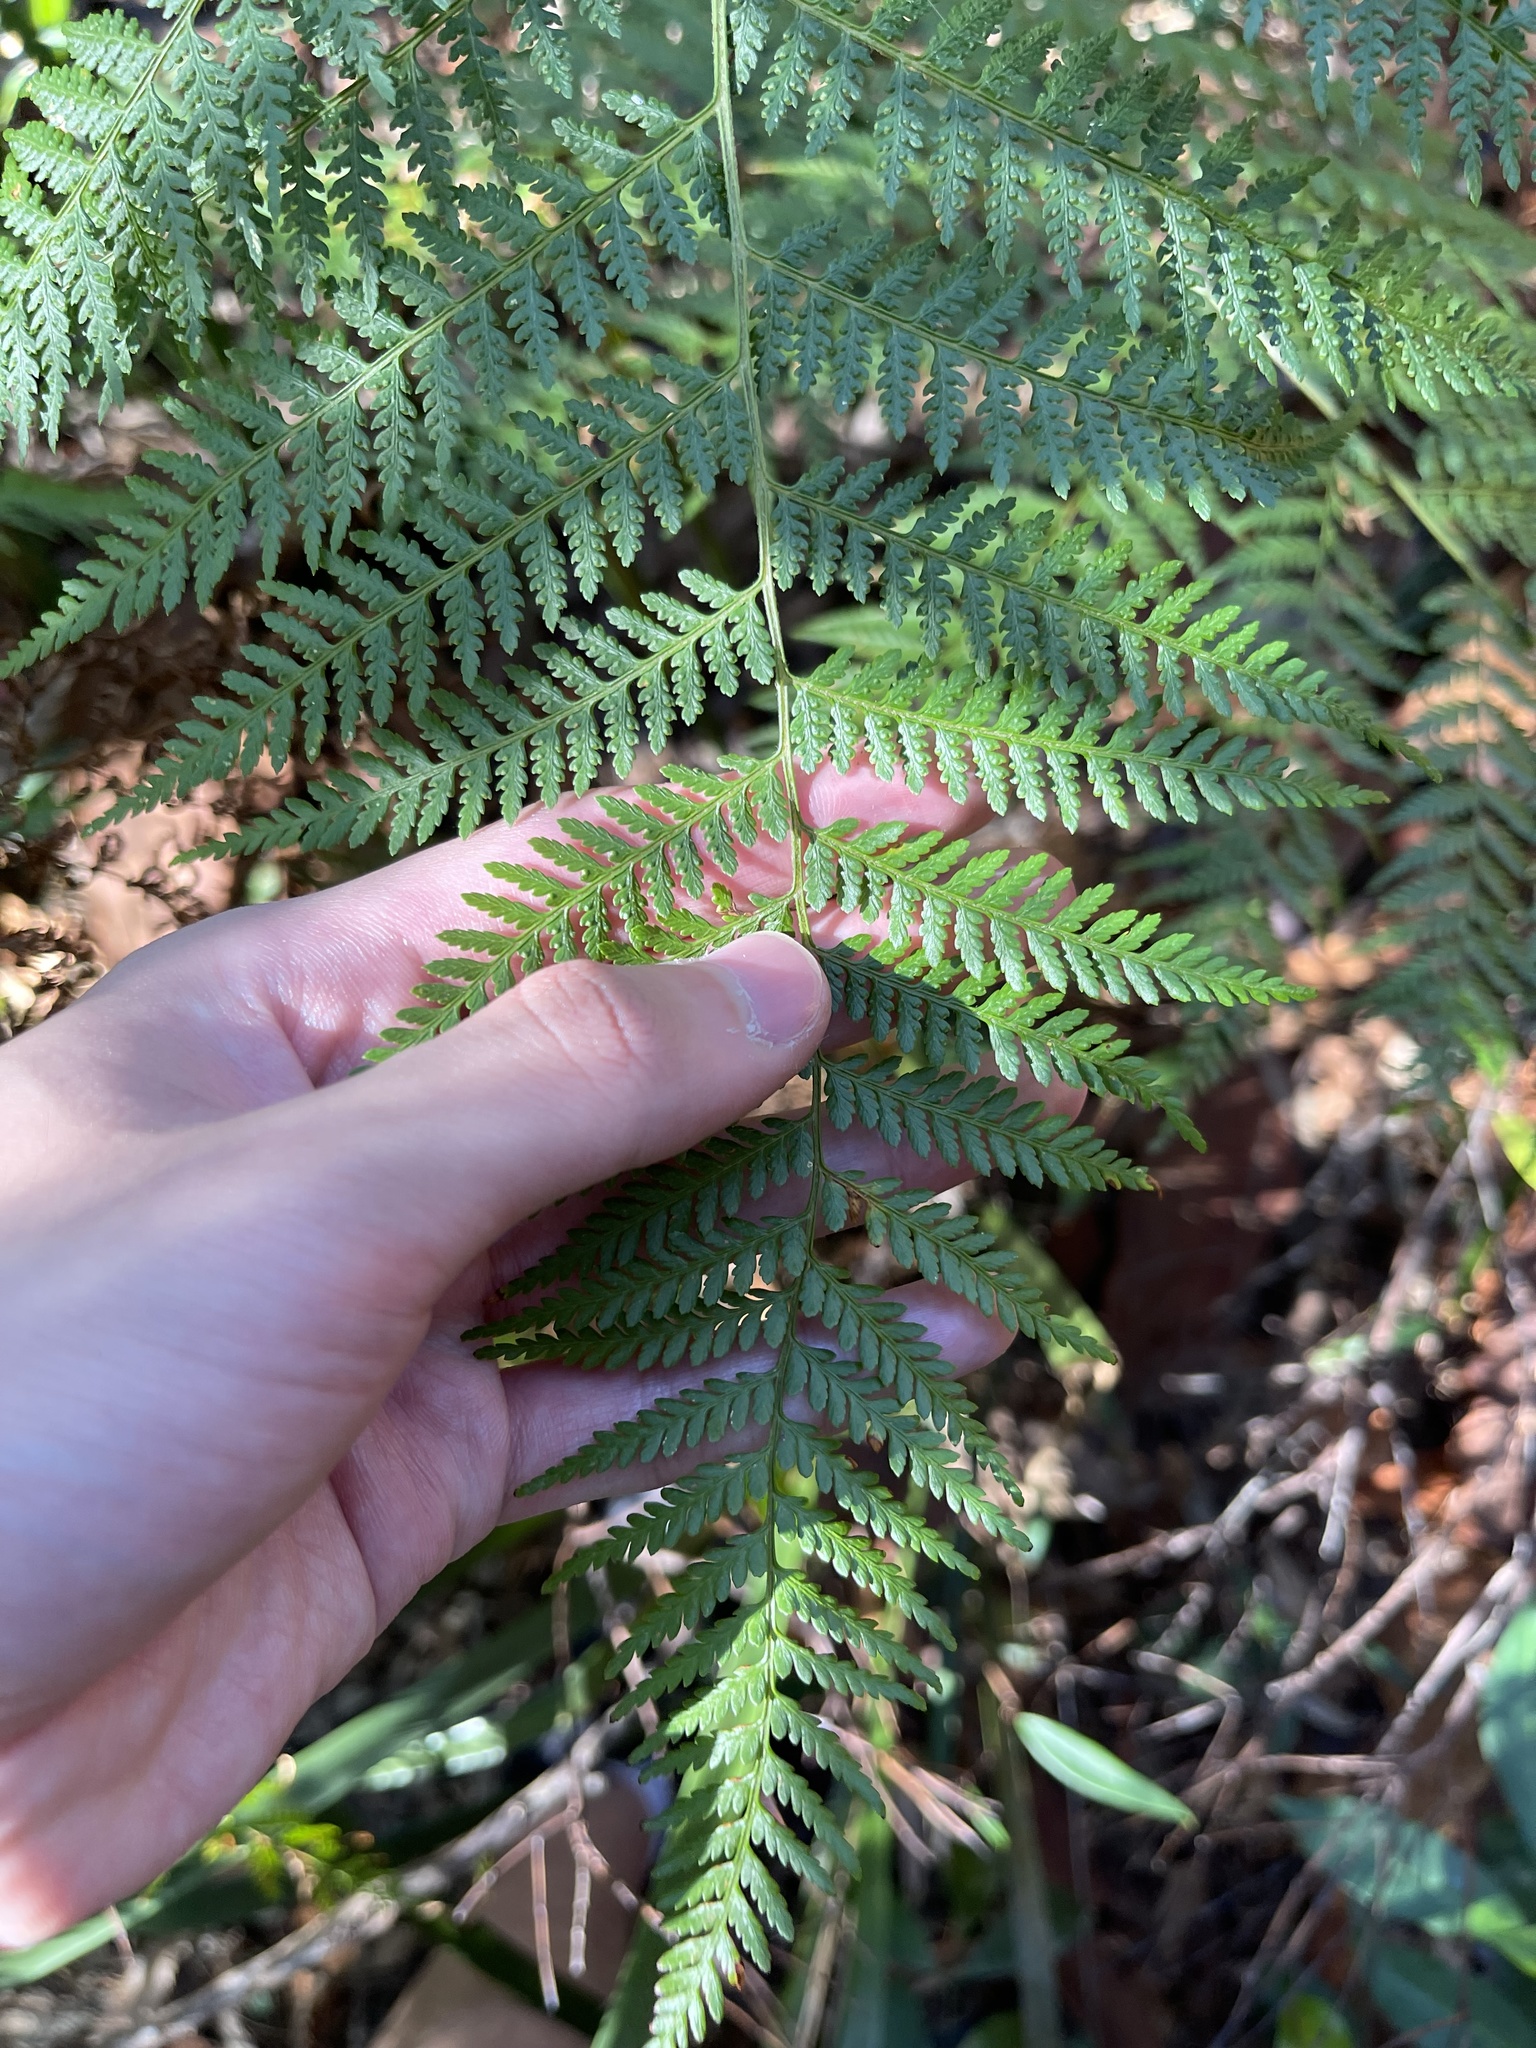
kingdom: Plantae
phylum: Tracheophyta
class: Polypodiopsida
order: Cyatheales
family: Dicksoniaceae
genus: Calochlaena
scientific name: Calochlaena dubia
